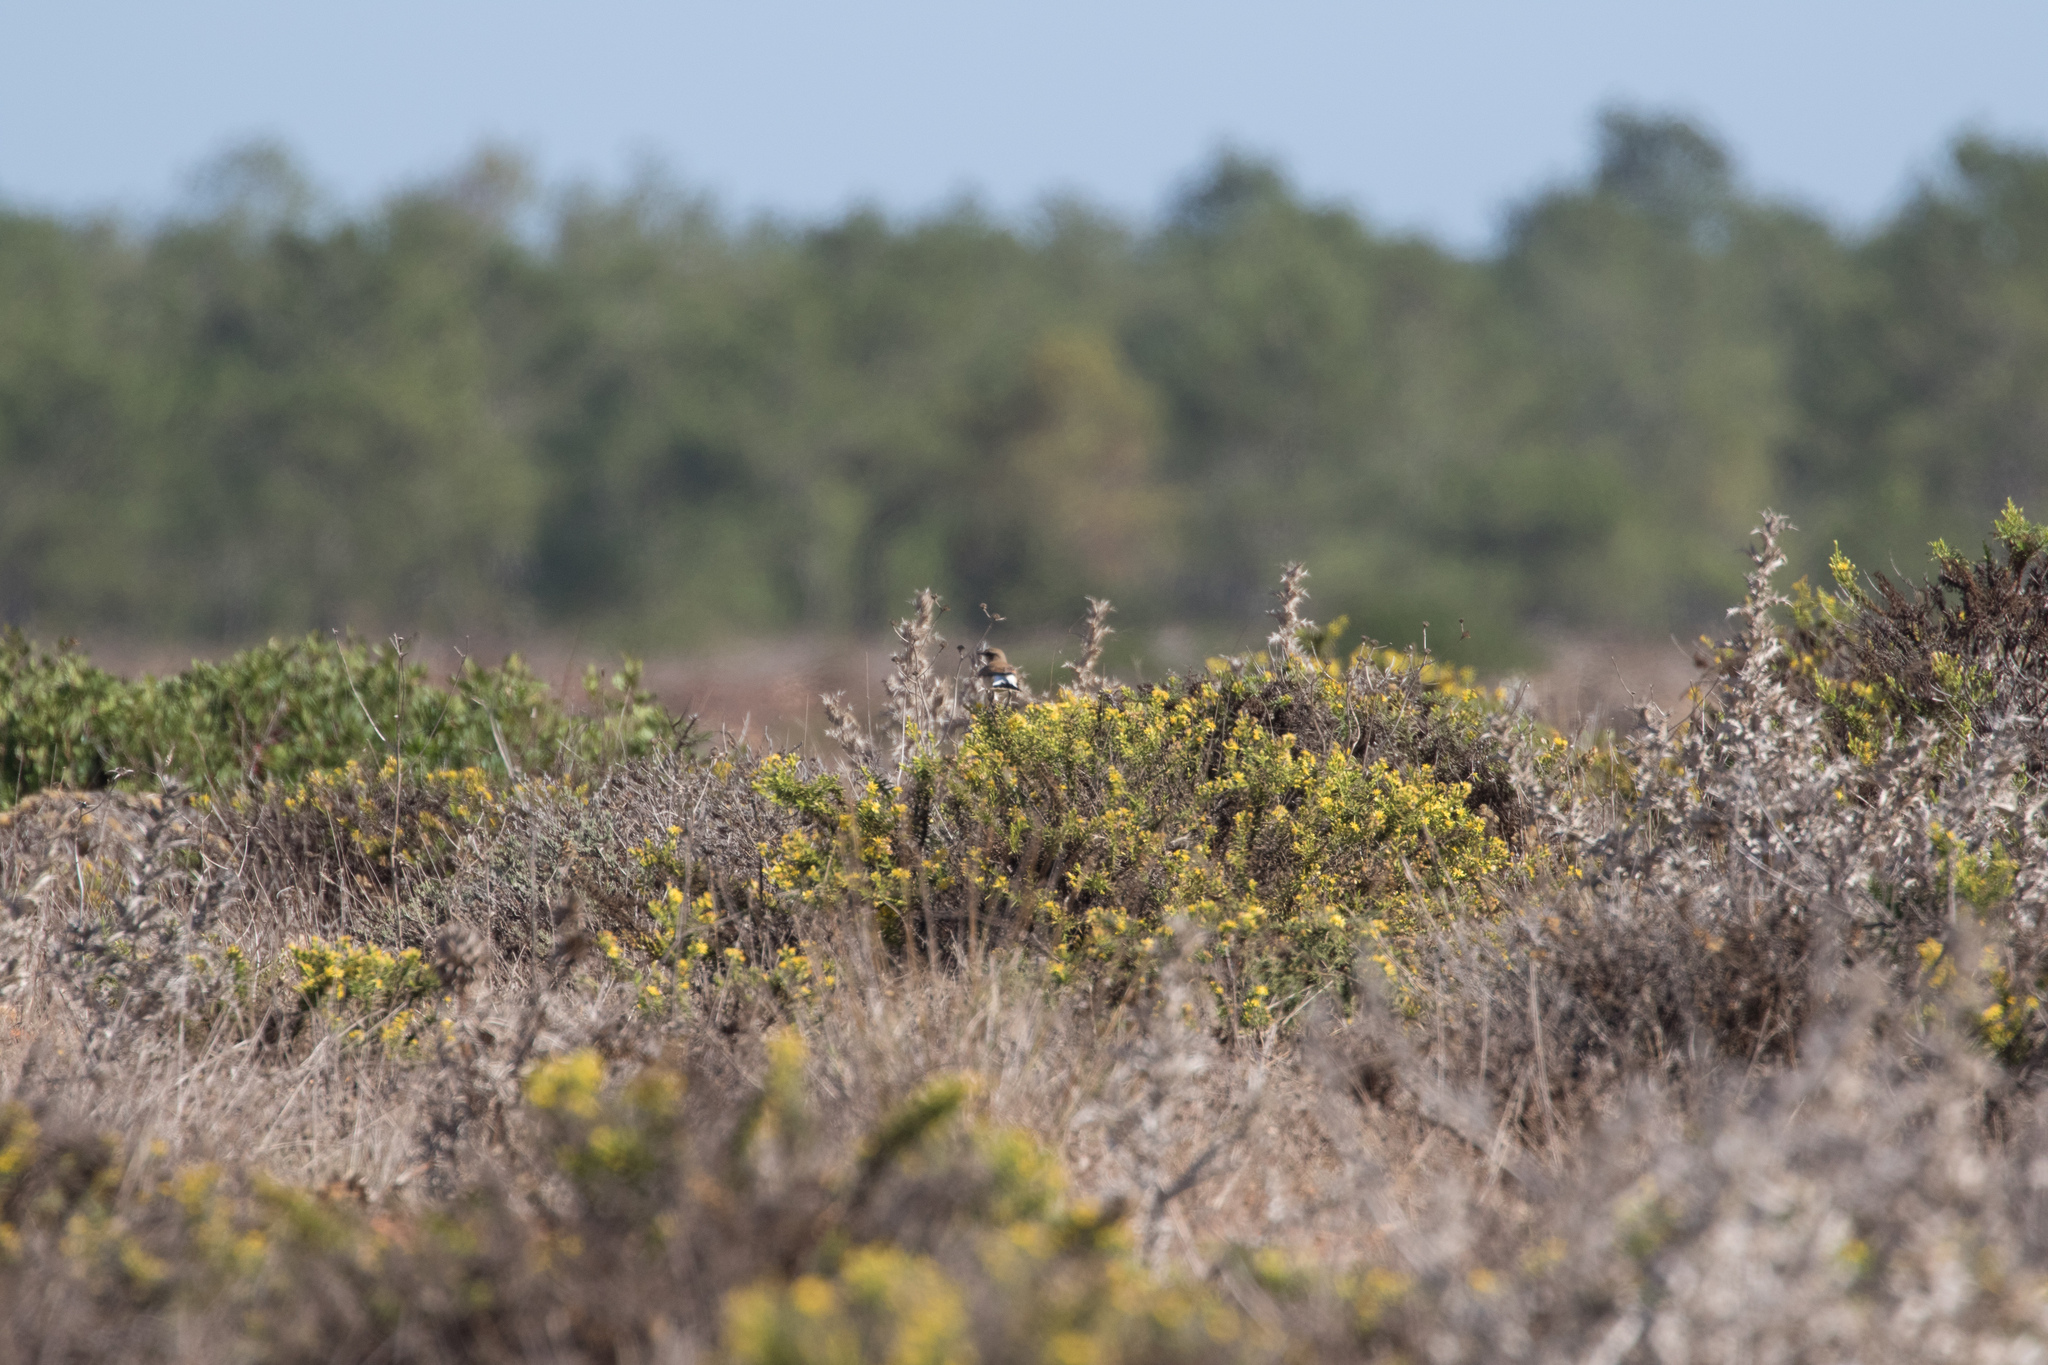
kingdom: Animalia
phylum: Chordata
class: Aves
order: Passeriformes
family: Muscicapidae
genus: Oenanthe
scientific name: Oenanthe oenanthe
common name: Northern wheatear
